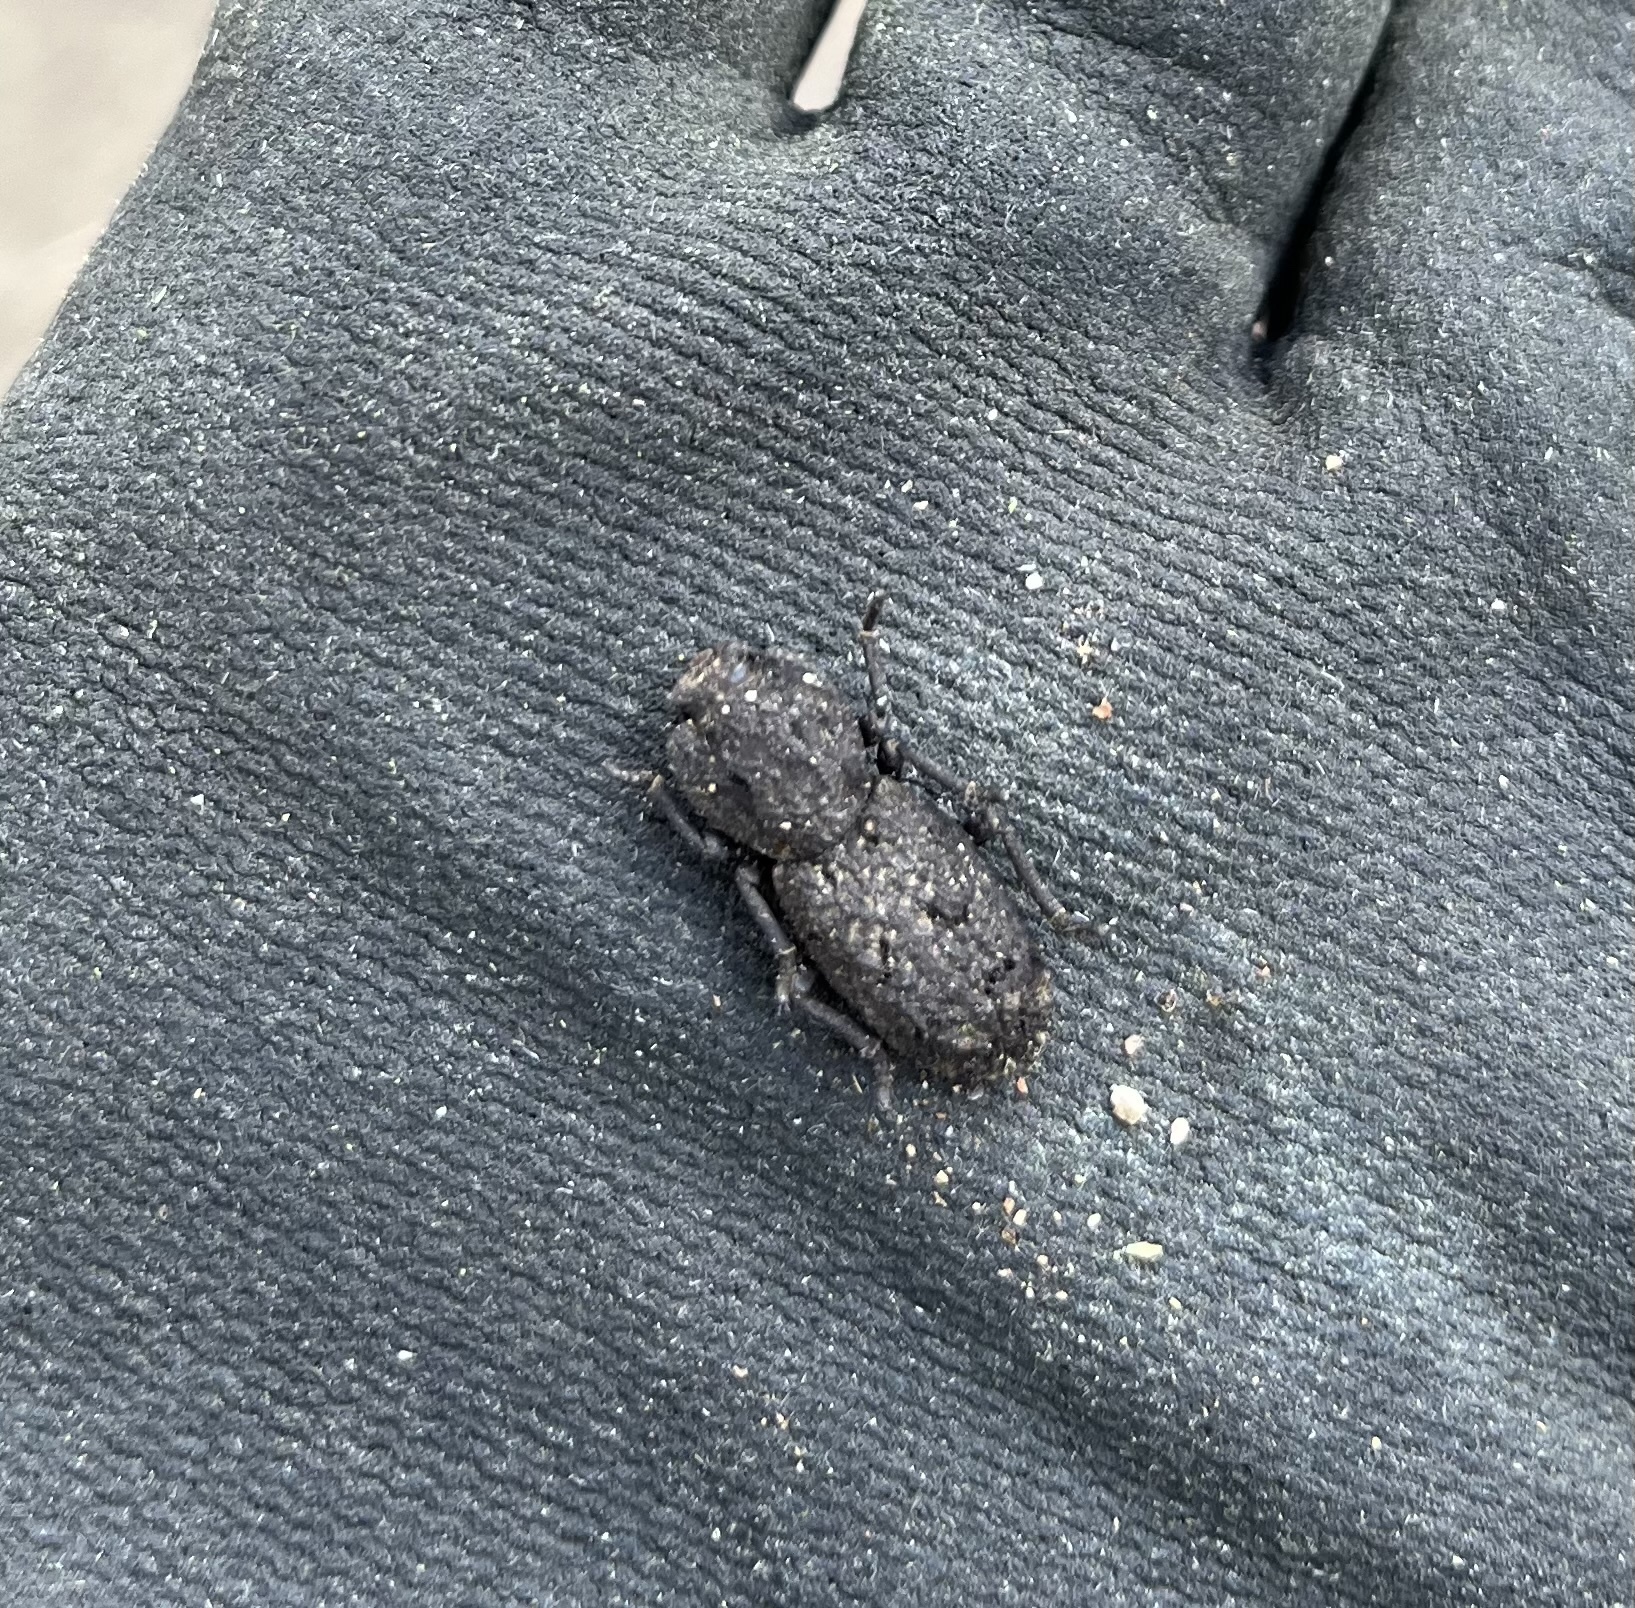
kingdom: Animalia
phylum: Arthropoda
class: Insecta
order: Coleoptera
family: Zopheridae
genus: Phloeodes
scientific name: Phloeodes diabolicus
